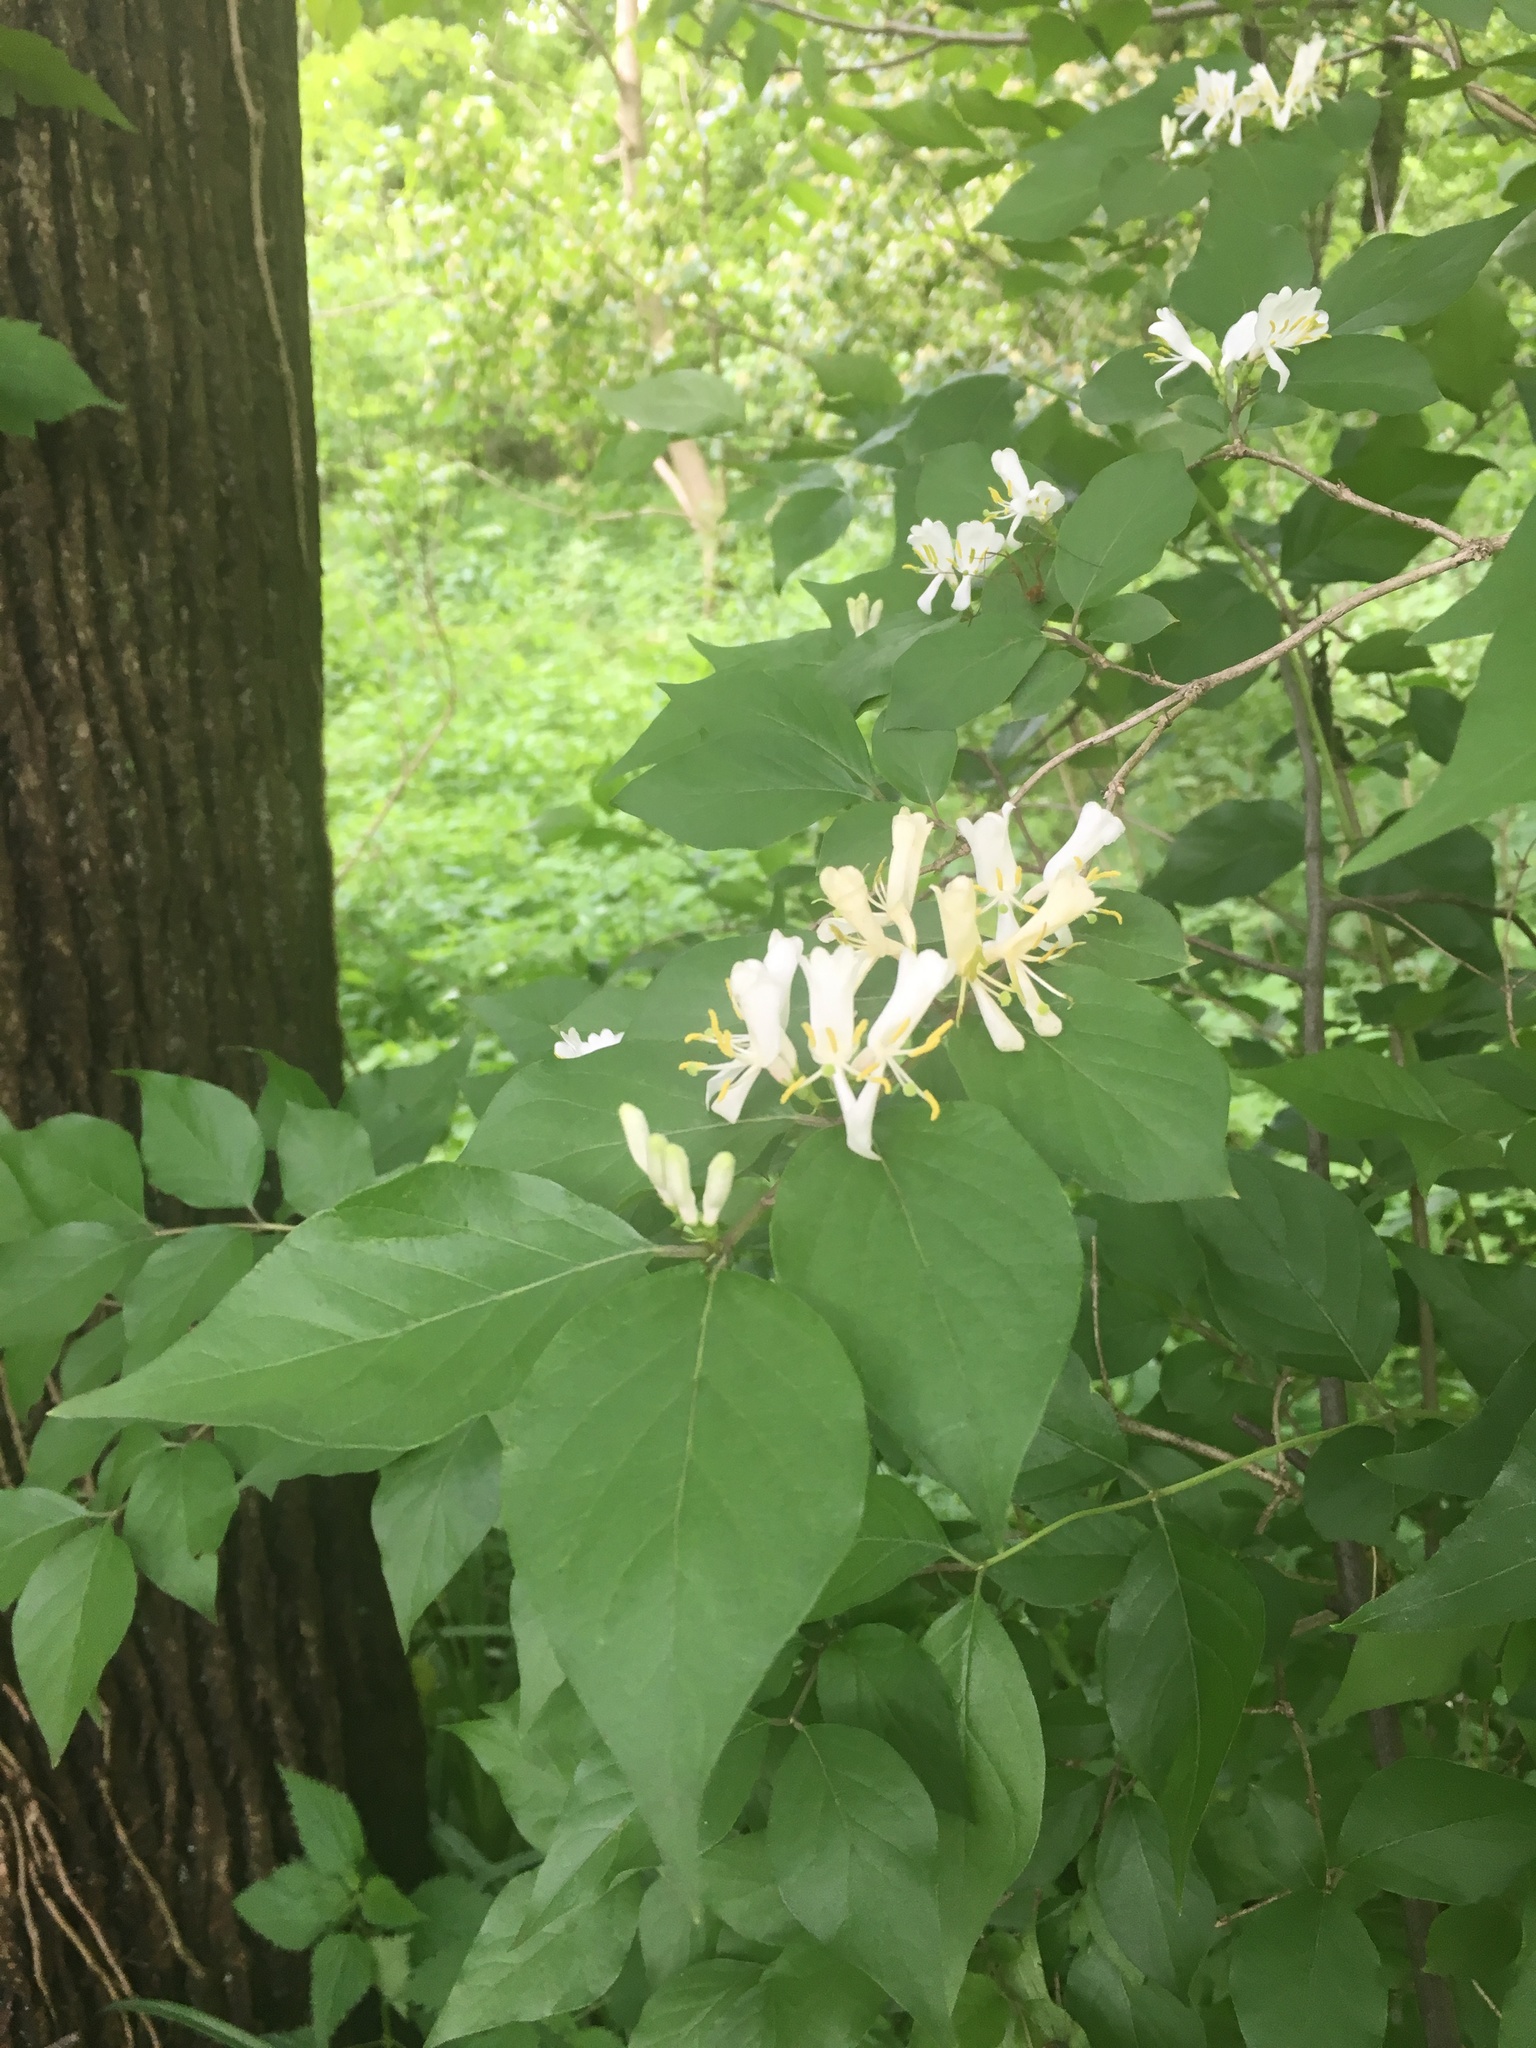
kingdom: Plantae
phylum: Tracheophyta
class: Magnoliopsida
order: Dipsacales
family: Caprifoliaceae
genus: Lonicera
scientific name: Lonicera maackii
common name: Amur honeysuckle
